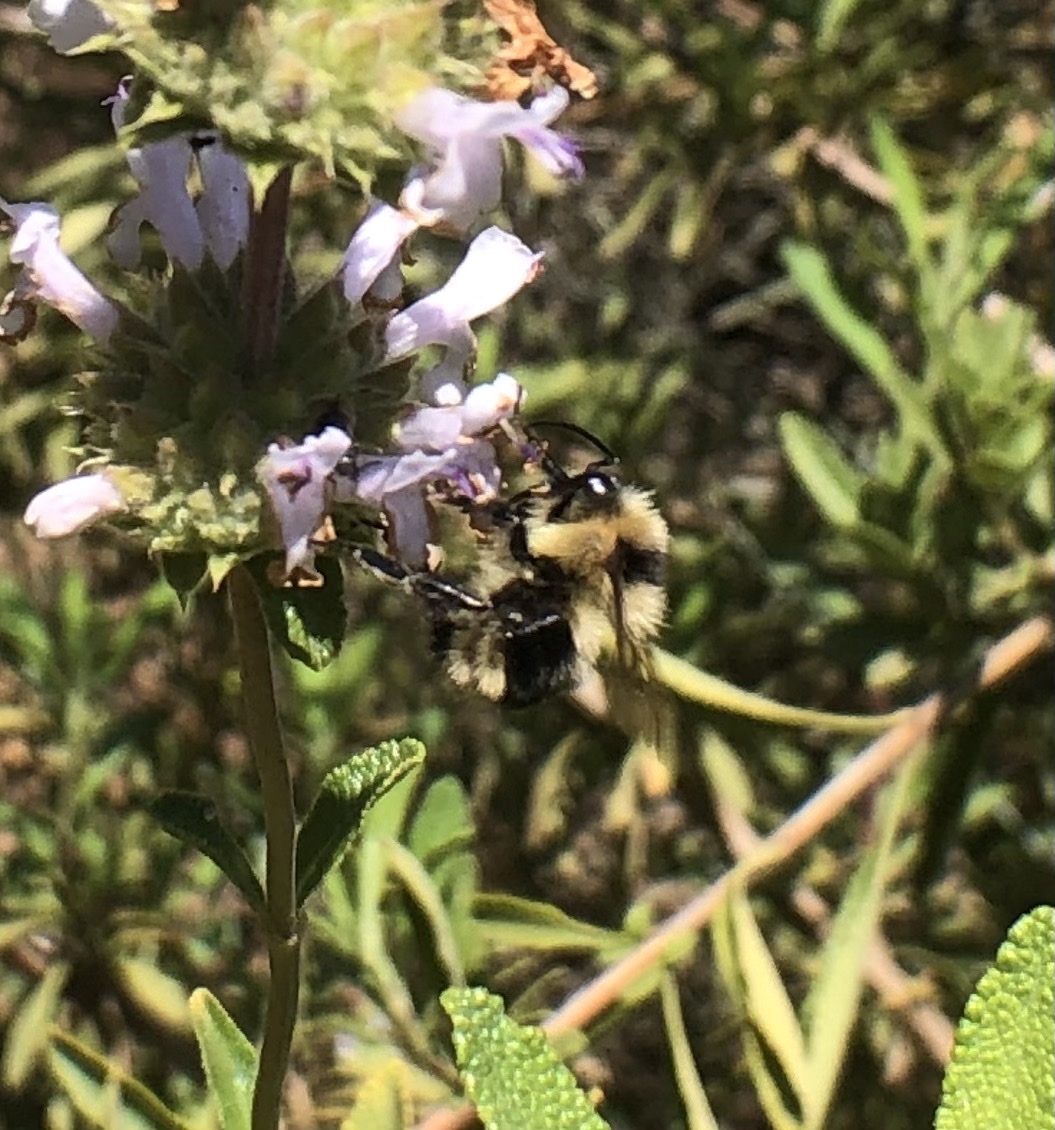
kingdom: Animalia
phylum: Arthropoda
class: Insecta
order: Hymenoptera
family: Apidae
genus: Bombus
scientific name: Bombus melanopygus
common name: Black tail bumble bee
